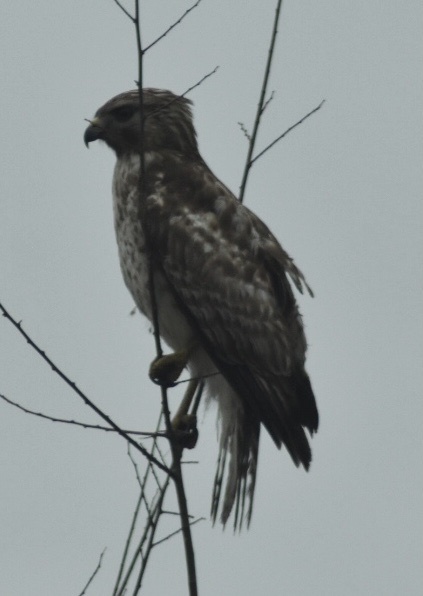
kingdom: Animalia
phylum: Chordata
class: Aves
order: Accipitriformes
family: Accipitridae
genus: Buteo
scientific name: Buteo lineatus
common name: Red-shouldered hawk
